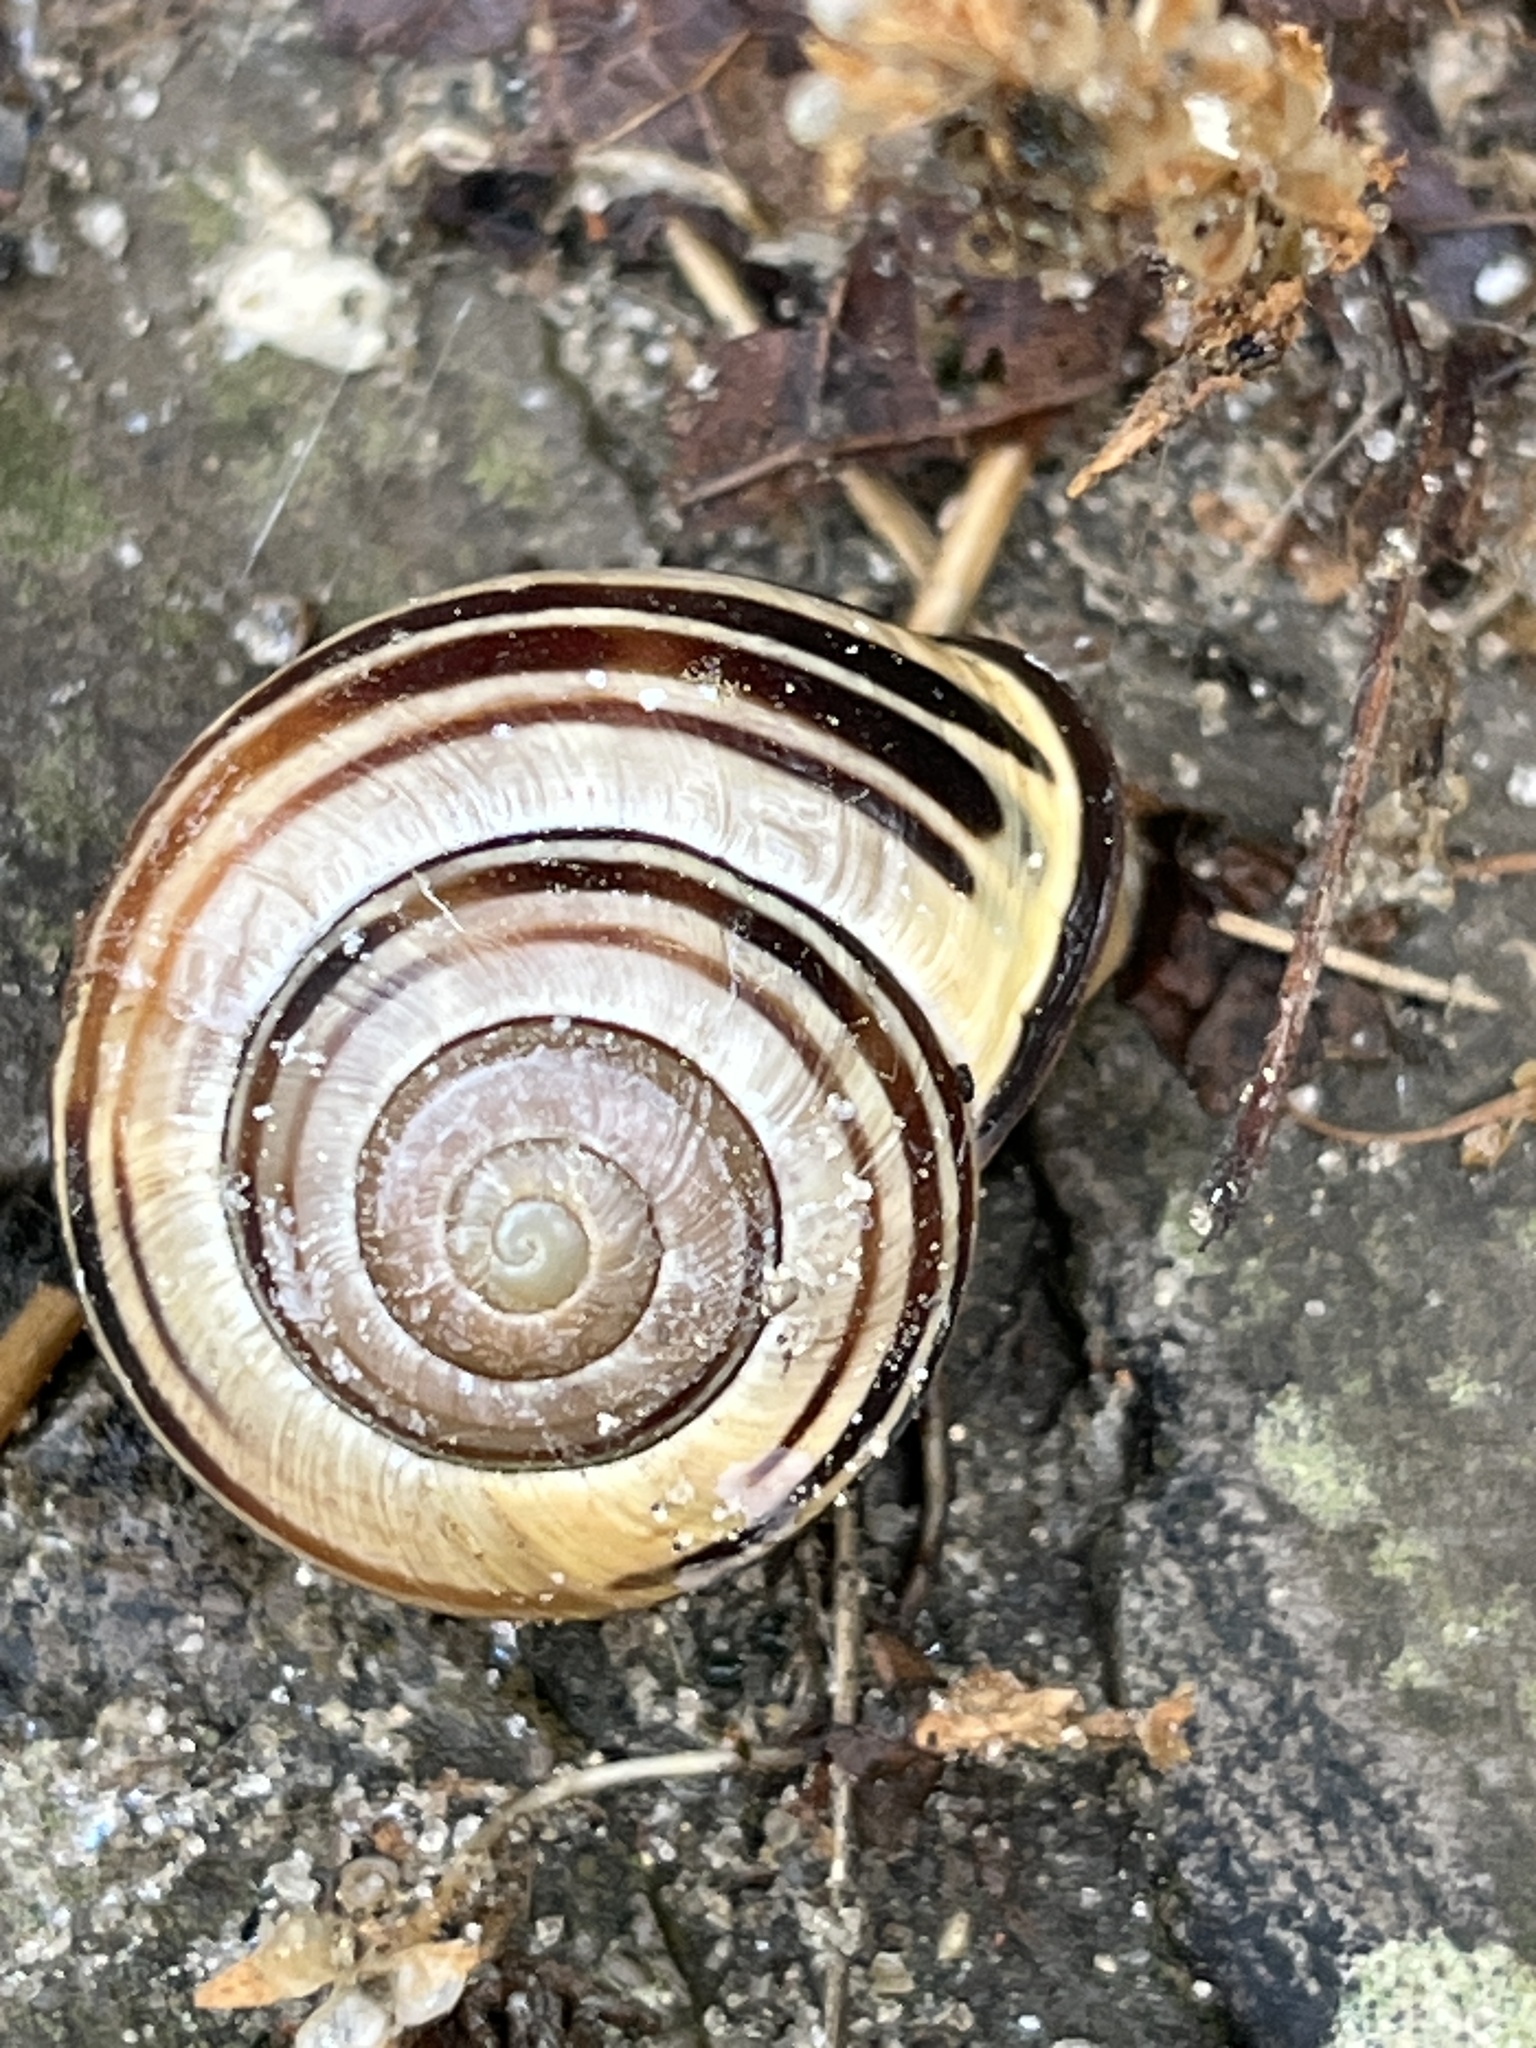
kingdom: Animalia
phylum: Mollusca
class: Gastropoda
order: Stylommatophora
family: Helicidae
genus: Cepaea
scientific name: Cepaea nemoralis
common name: Grovesnail
